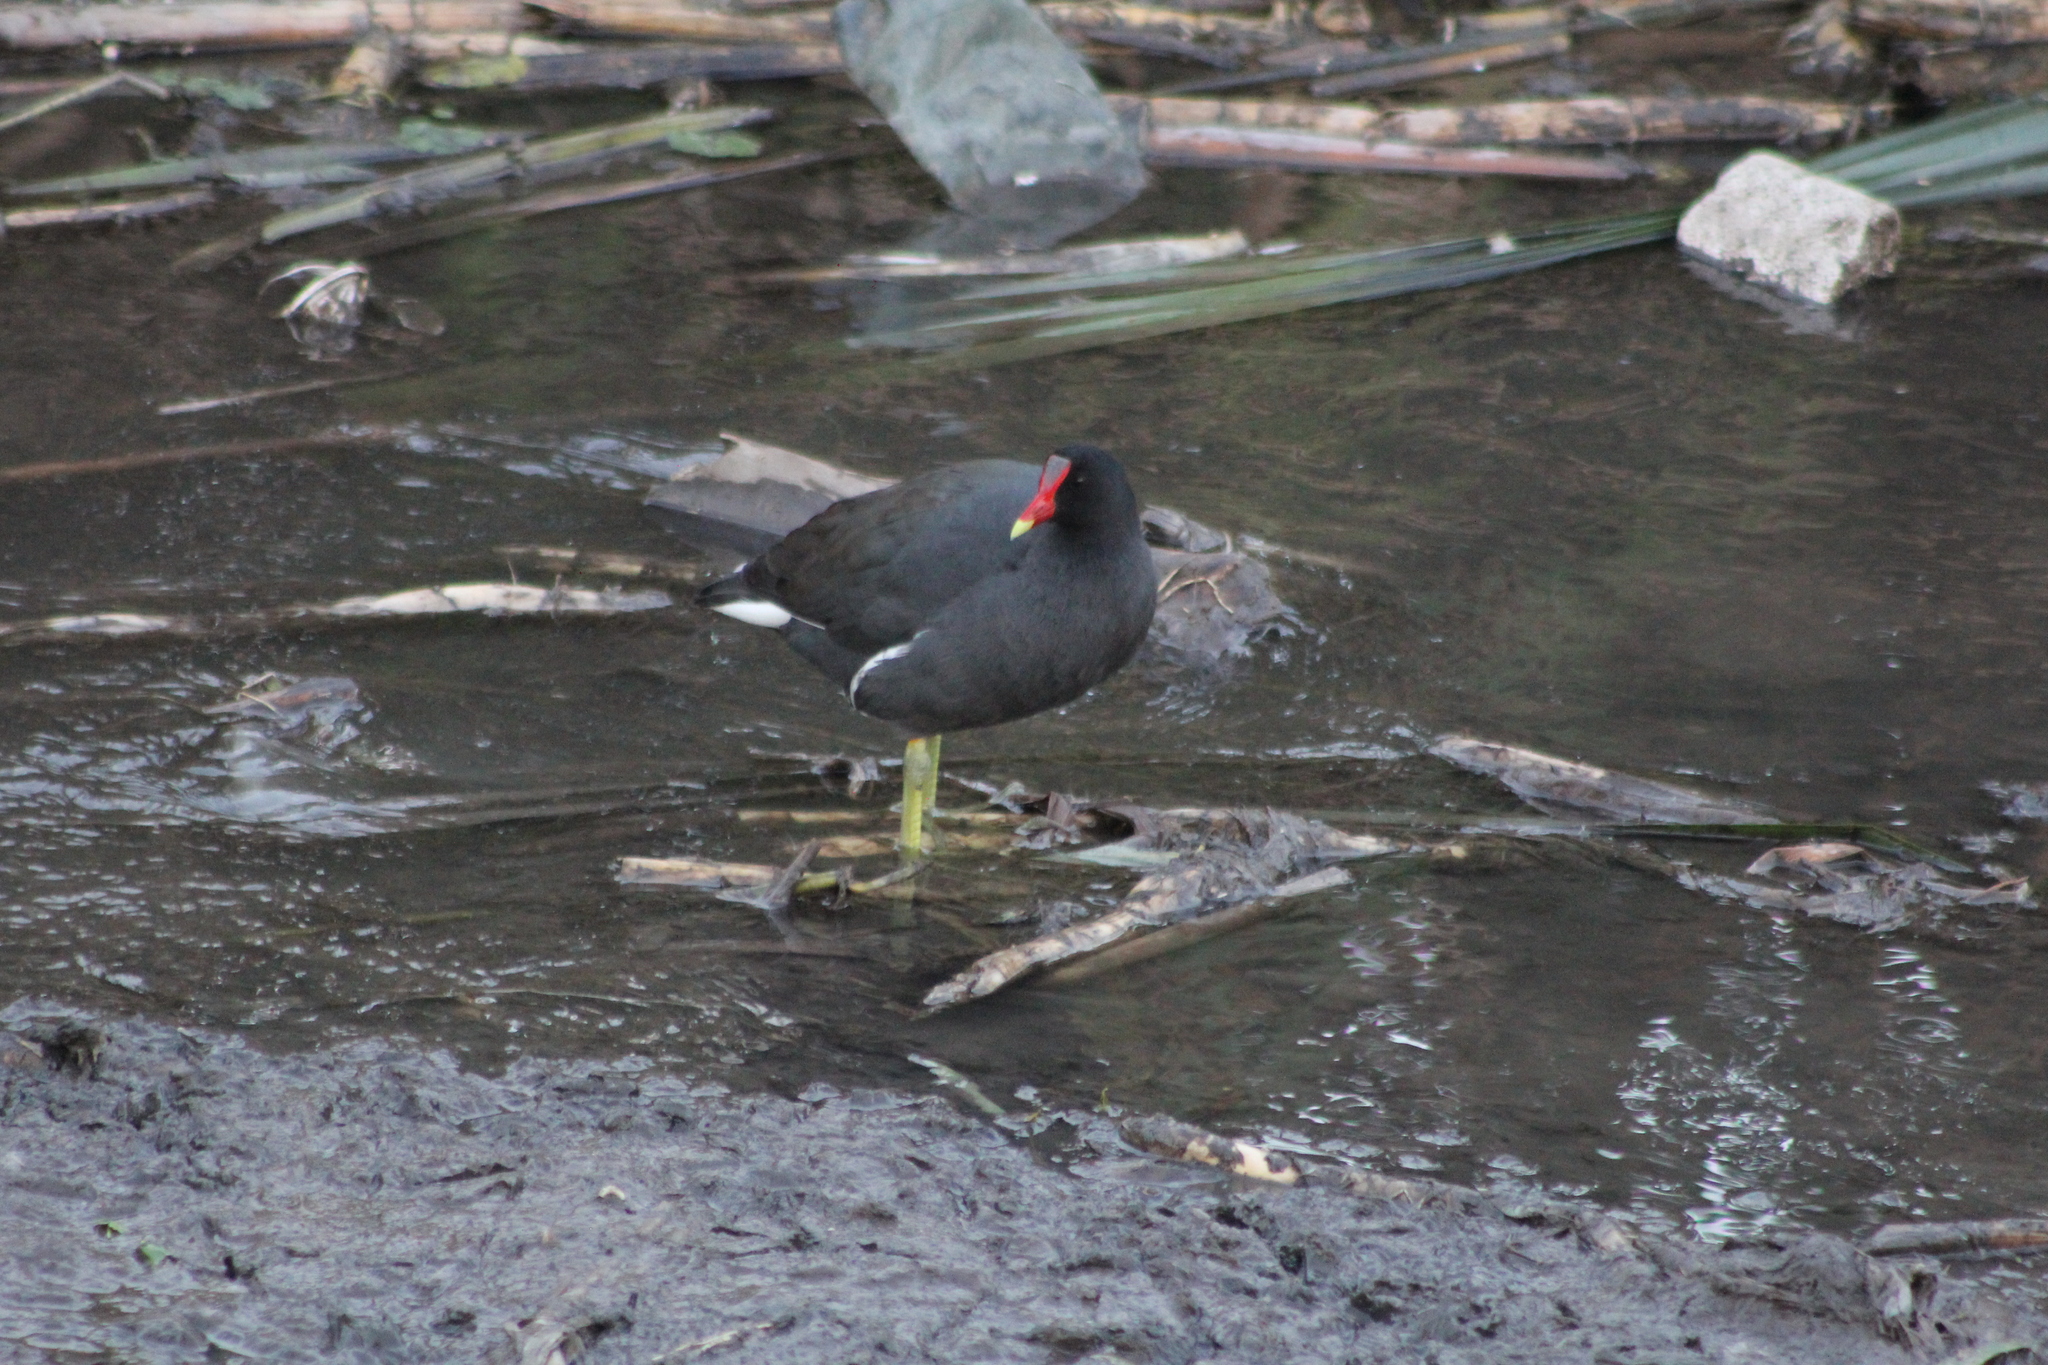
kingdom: Animalia
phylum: Chordata
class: Aves
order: Gruiformes
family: Rallidae
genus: Gallinula
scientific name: Gallinula chloropus
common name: Common moorhen
